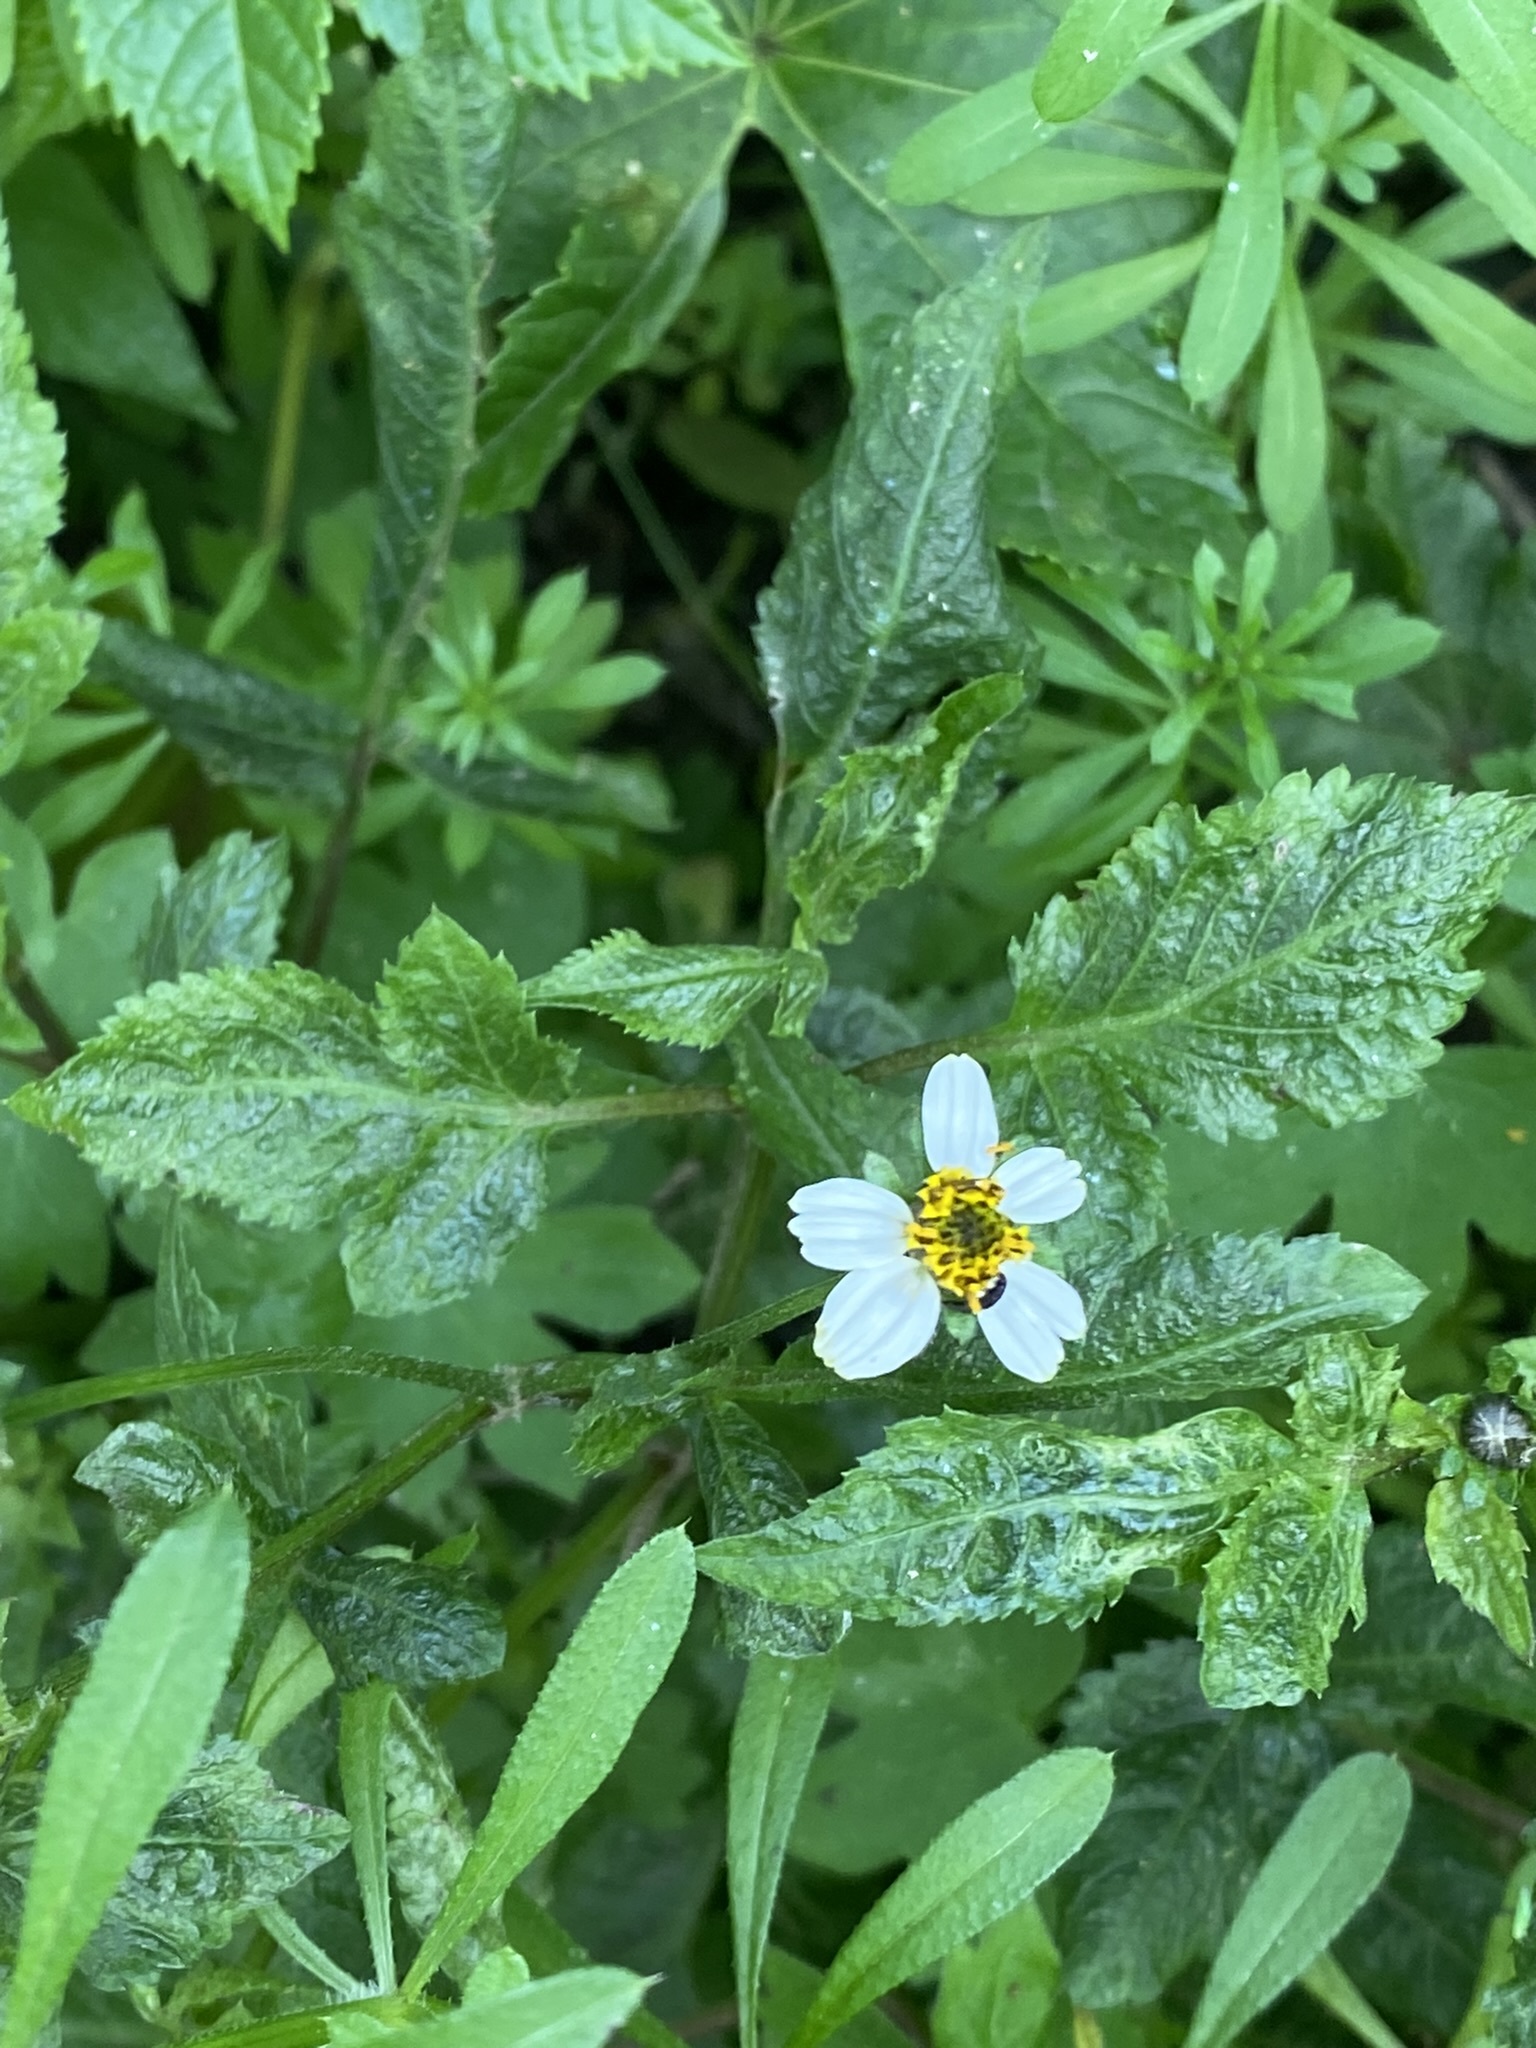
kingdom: Plantae
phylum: Tracheophyta
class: Magnoliopsida
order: Asterales
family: Asteraceae
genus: Bidens
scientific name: Bidens pilosa
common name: Black-jack
